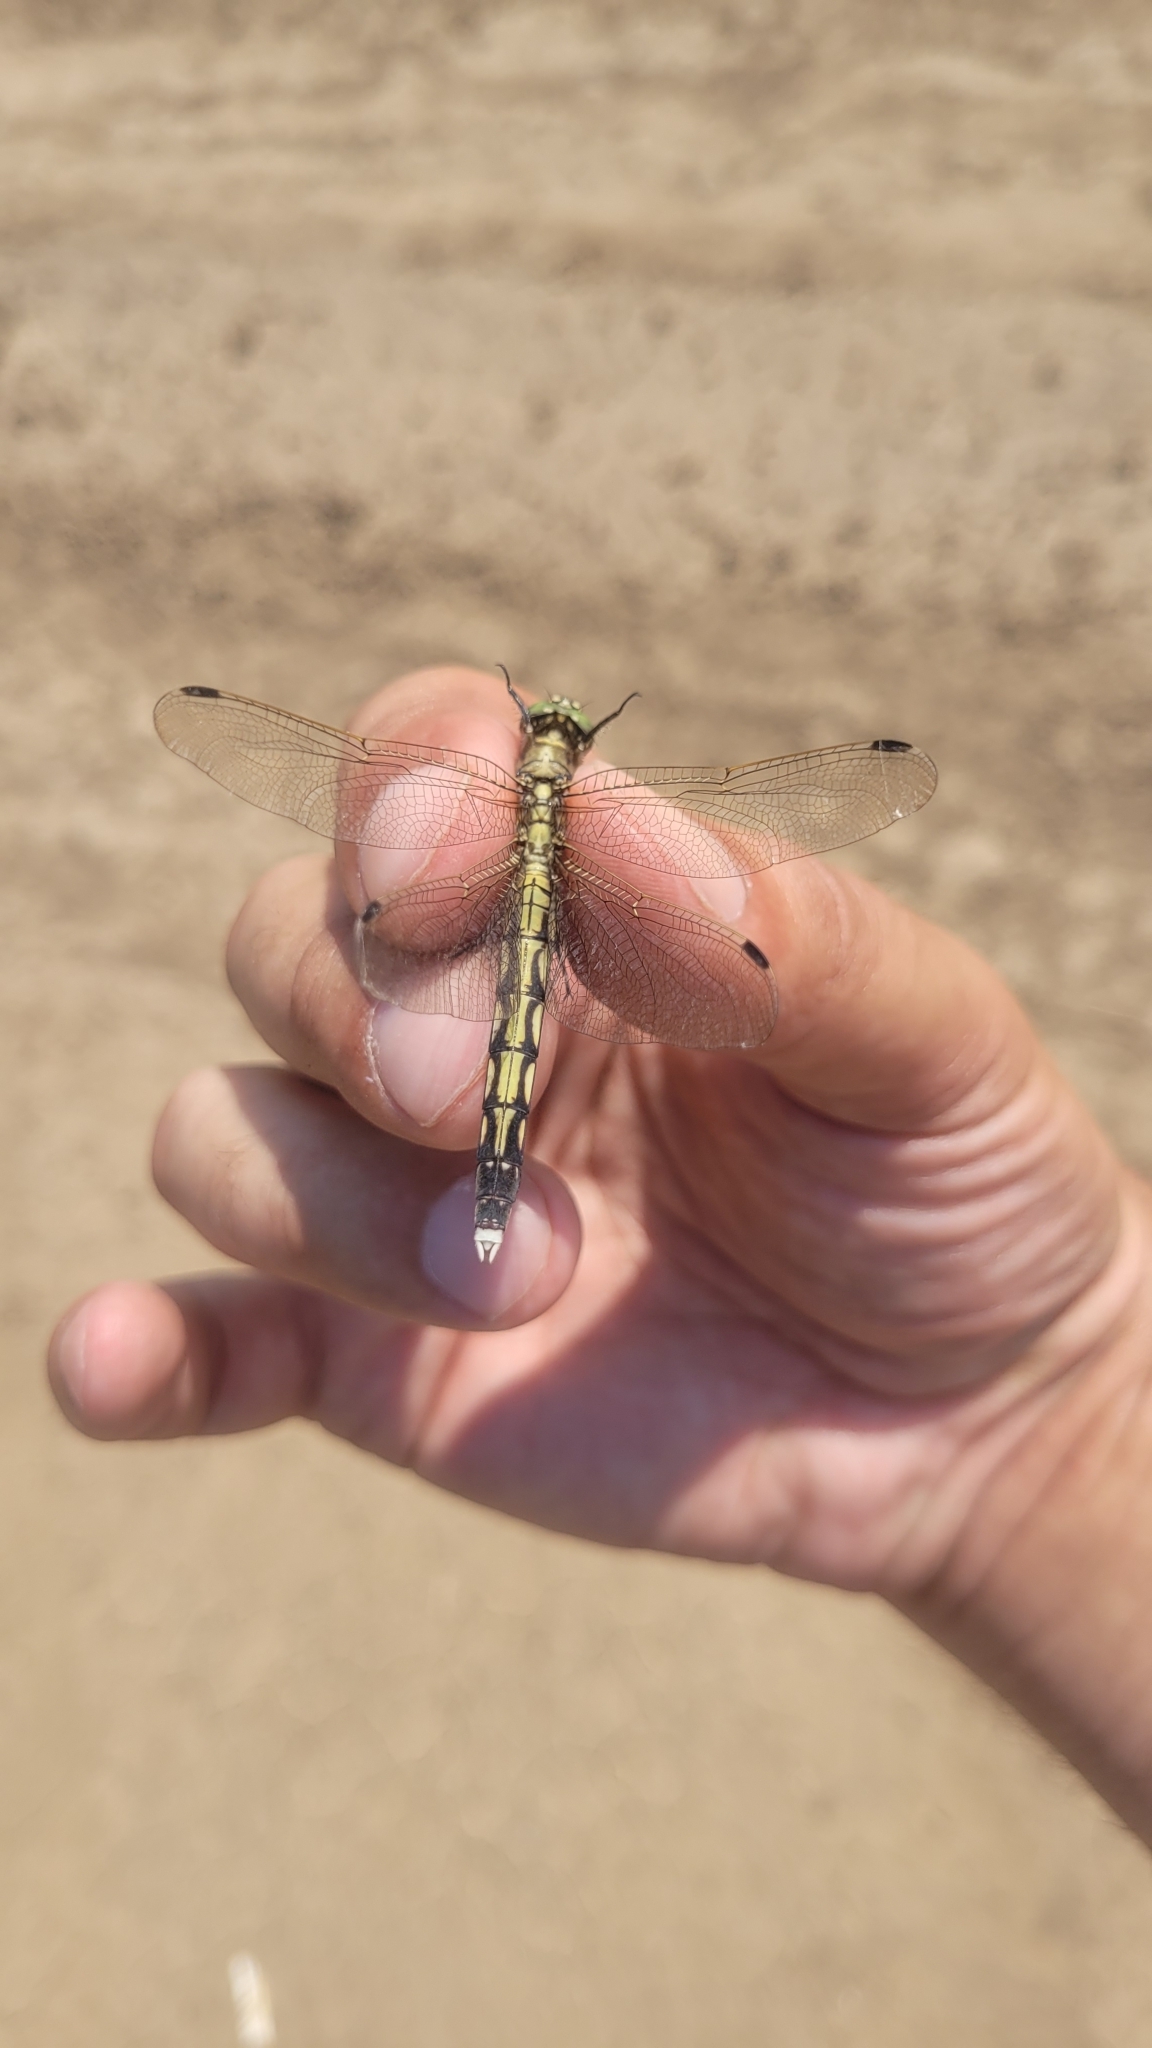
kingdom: Animalia
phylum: Arthropoda
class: Insecta
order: Odonata
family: Libellulidae
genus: Orthetrum
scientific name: Orthetrum albistylum
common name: White-tailed skimmer
